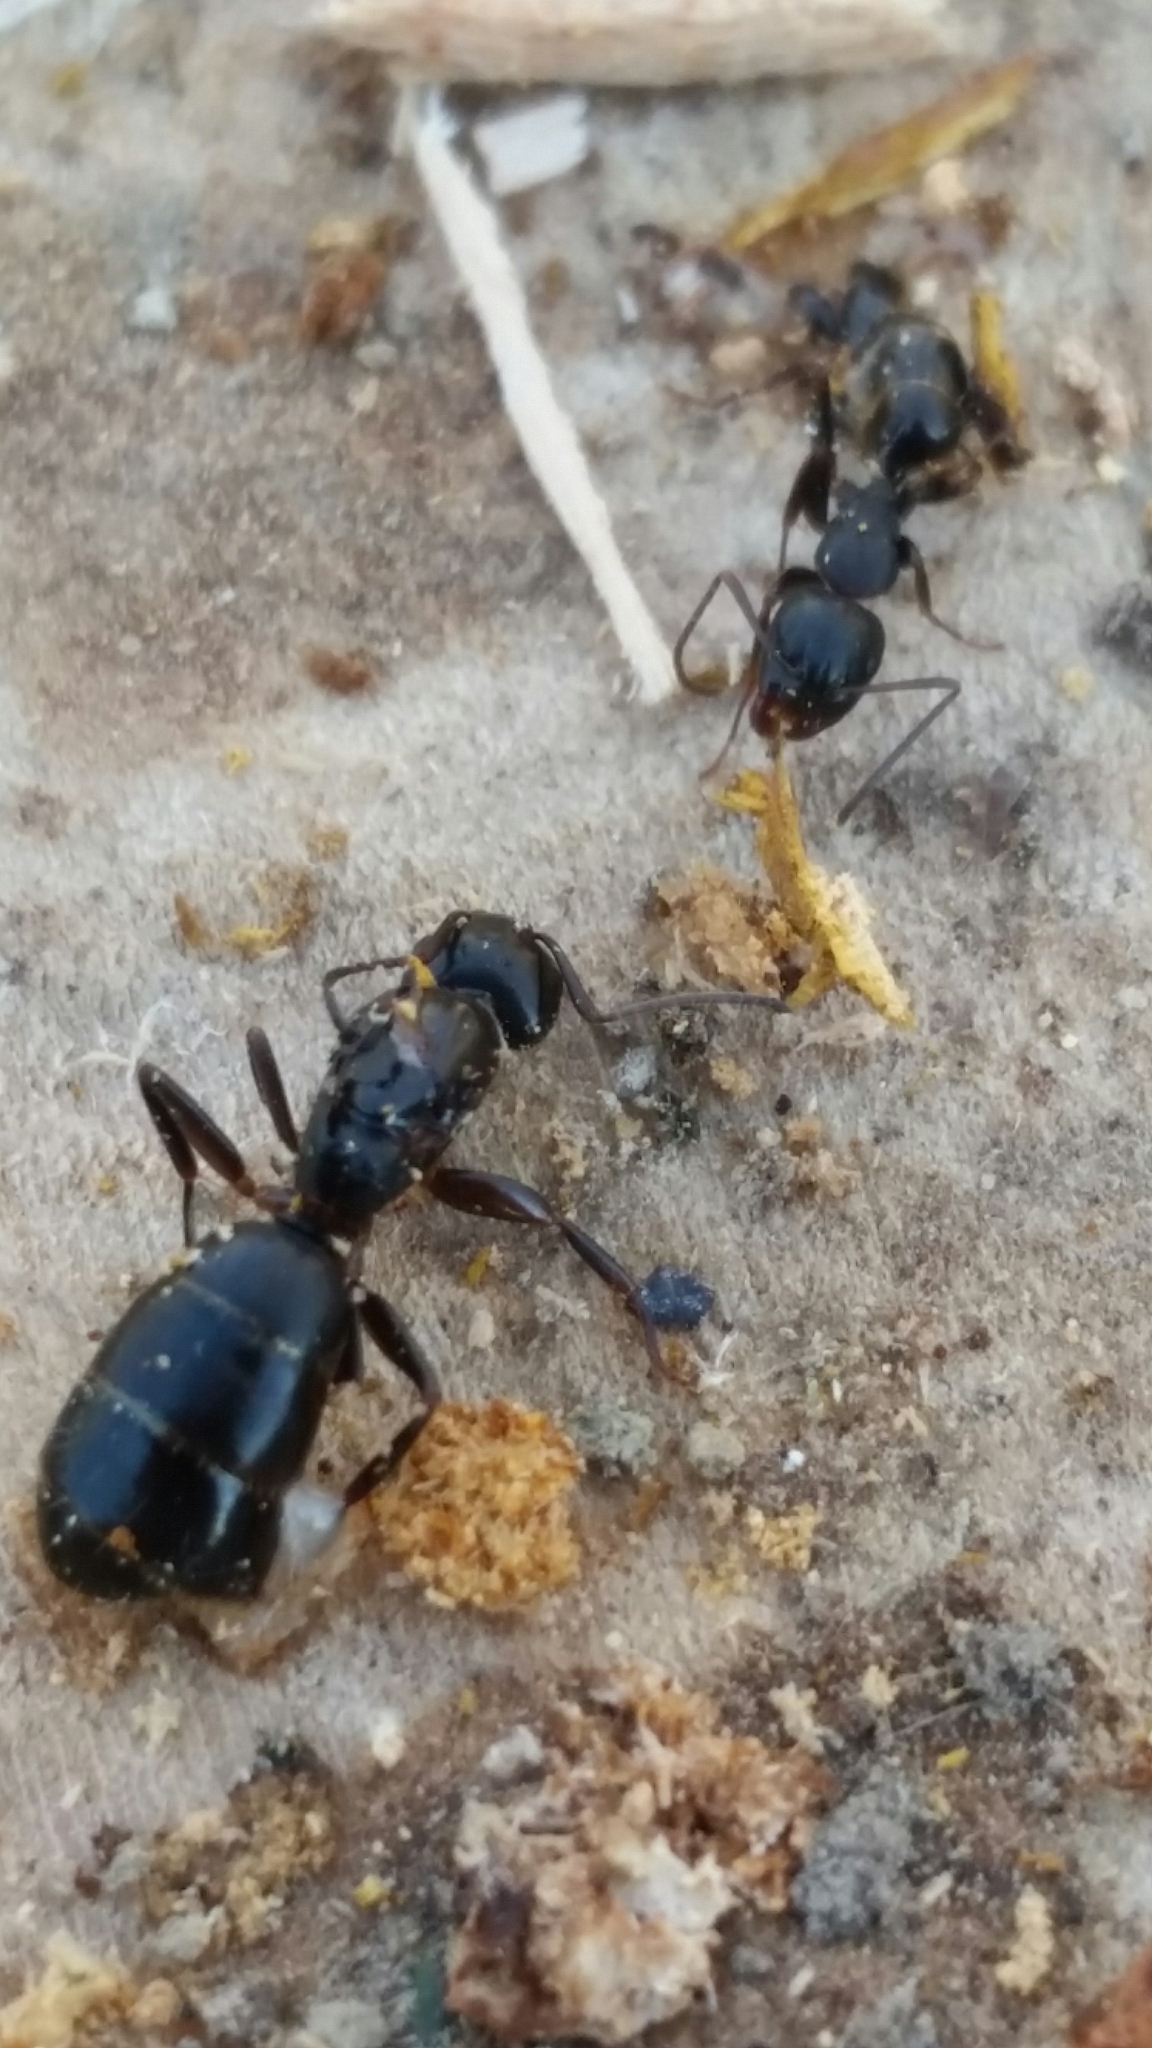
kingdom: Animalia
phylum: Arthropoda
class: Insecta
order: Hymenoptera
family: Formicidae
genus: Camponotus
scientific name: Camponotus nearcticus
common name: Smaller carpenter ant
